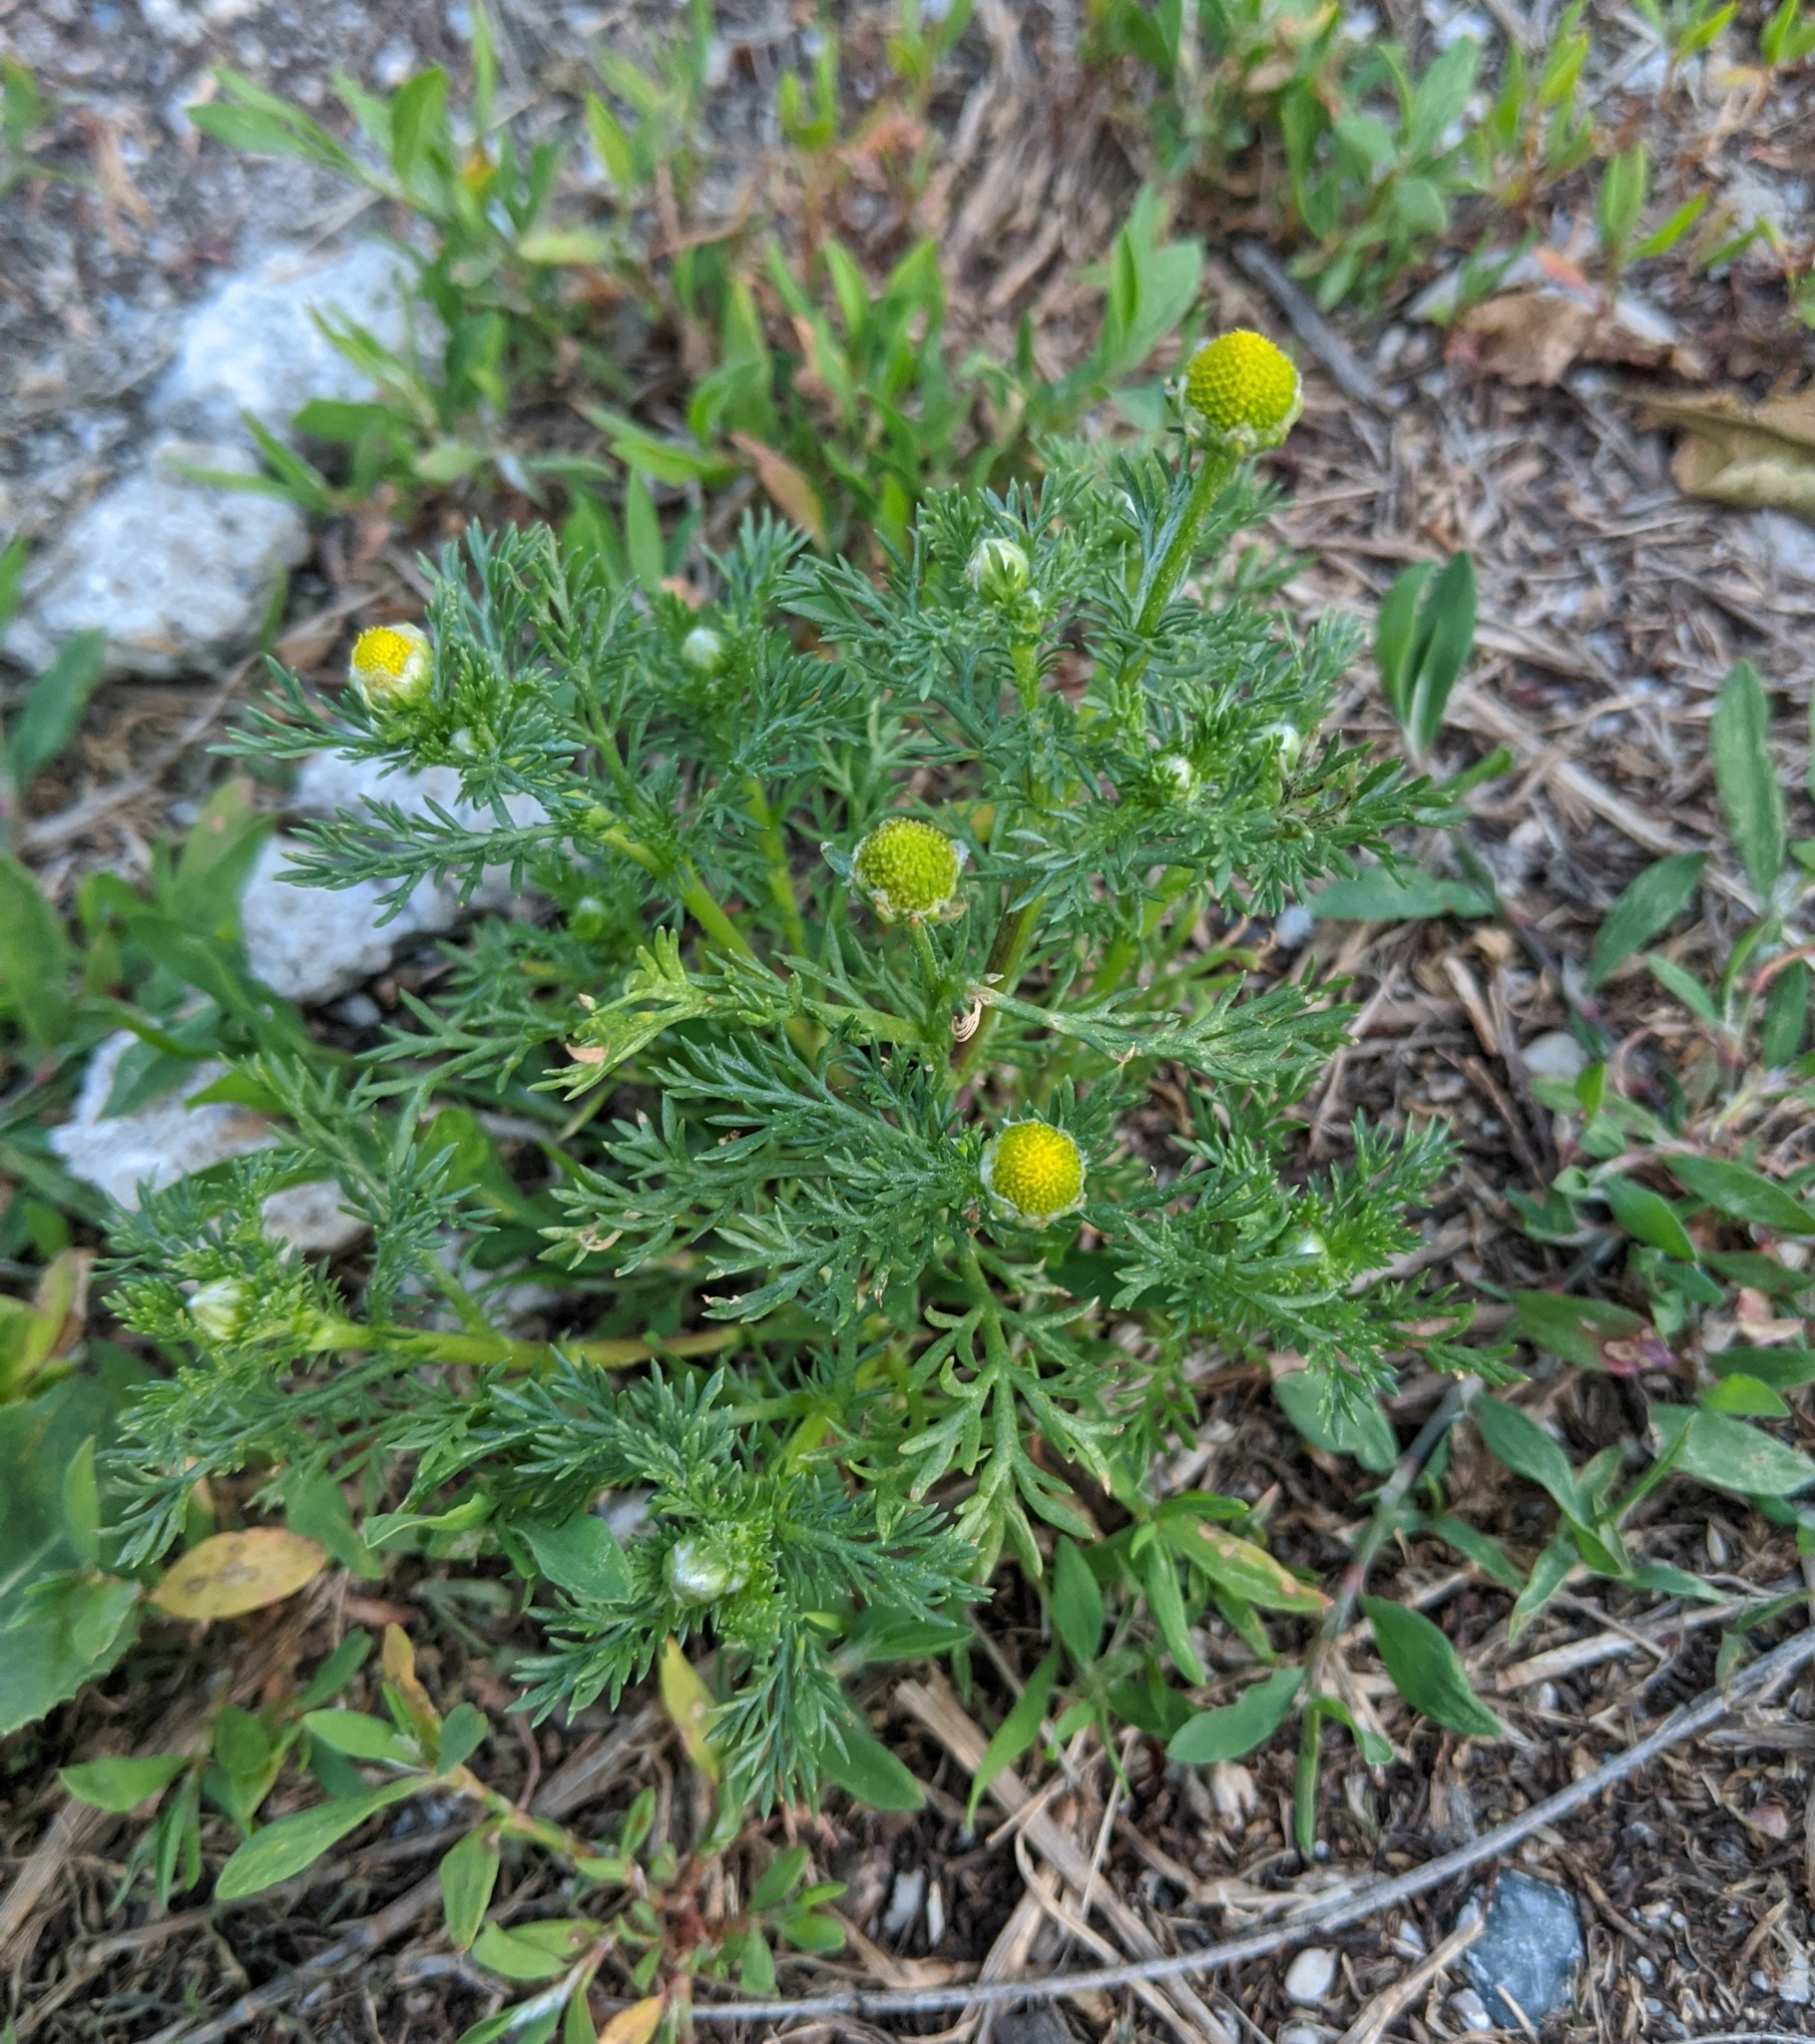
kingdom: Plantae
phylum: Tracheophyta
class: Magnoliopsida
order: Asterales
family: Asteraceae
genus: Matricaria
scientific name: Matricaria discoidea
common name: Disc mayweed
